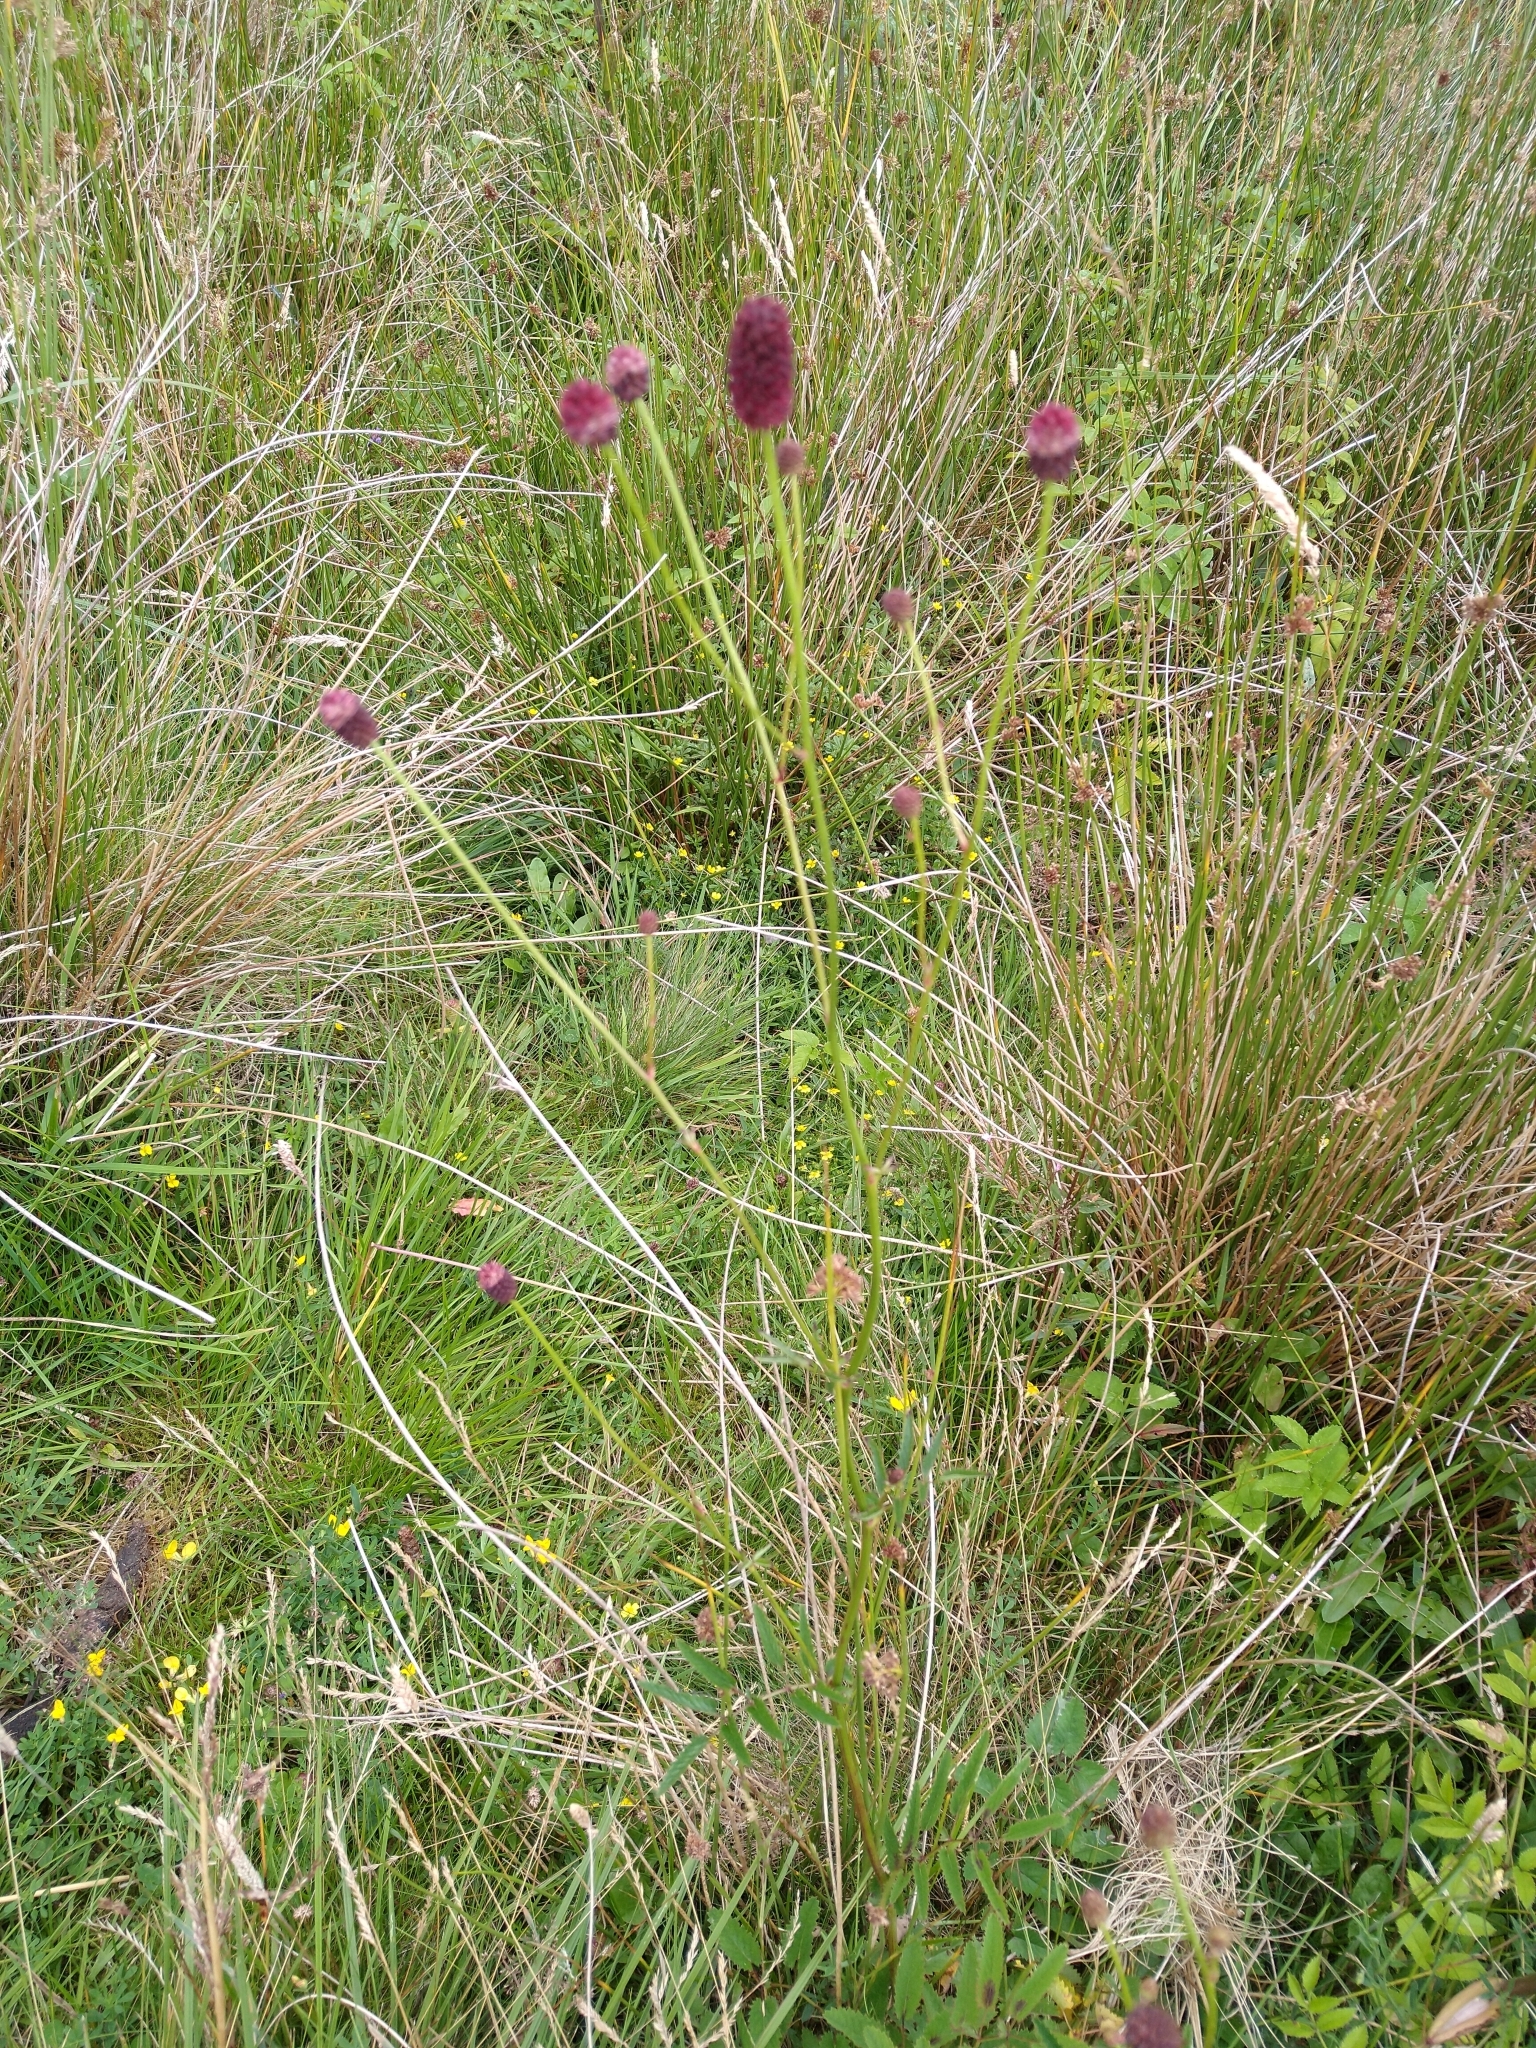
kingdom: Plantae
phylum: Tracheophyta
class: Magnoliopsida
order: Rosales
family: Rosaceae
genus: Sanguisorba
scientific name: Sanguisorba officinalis
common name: Great burnet
